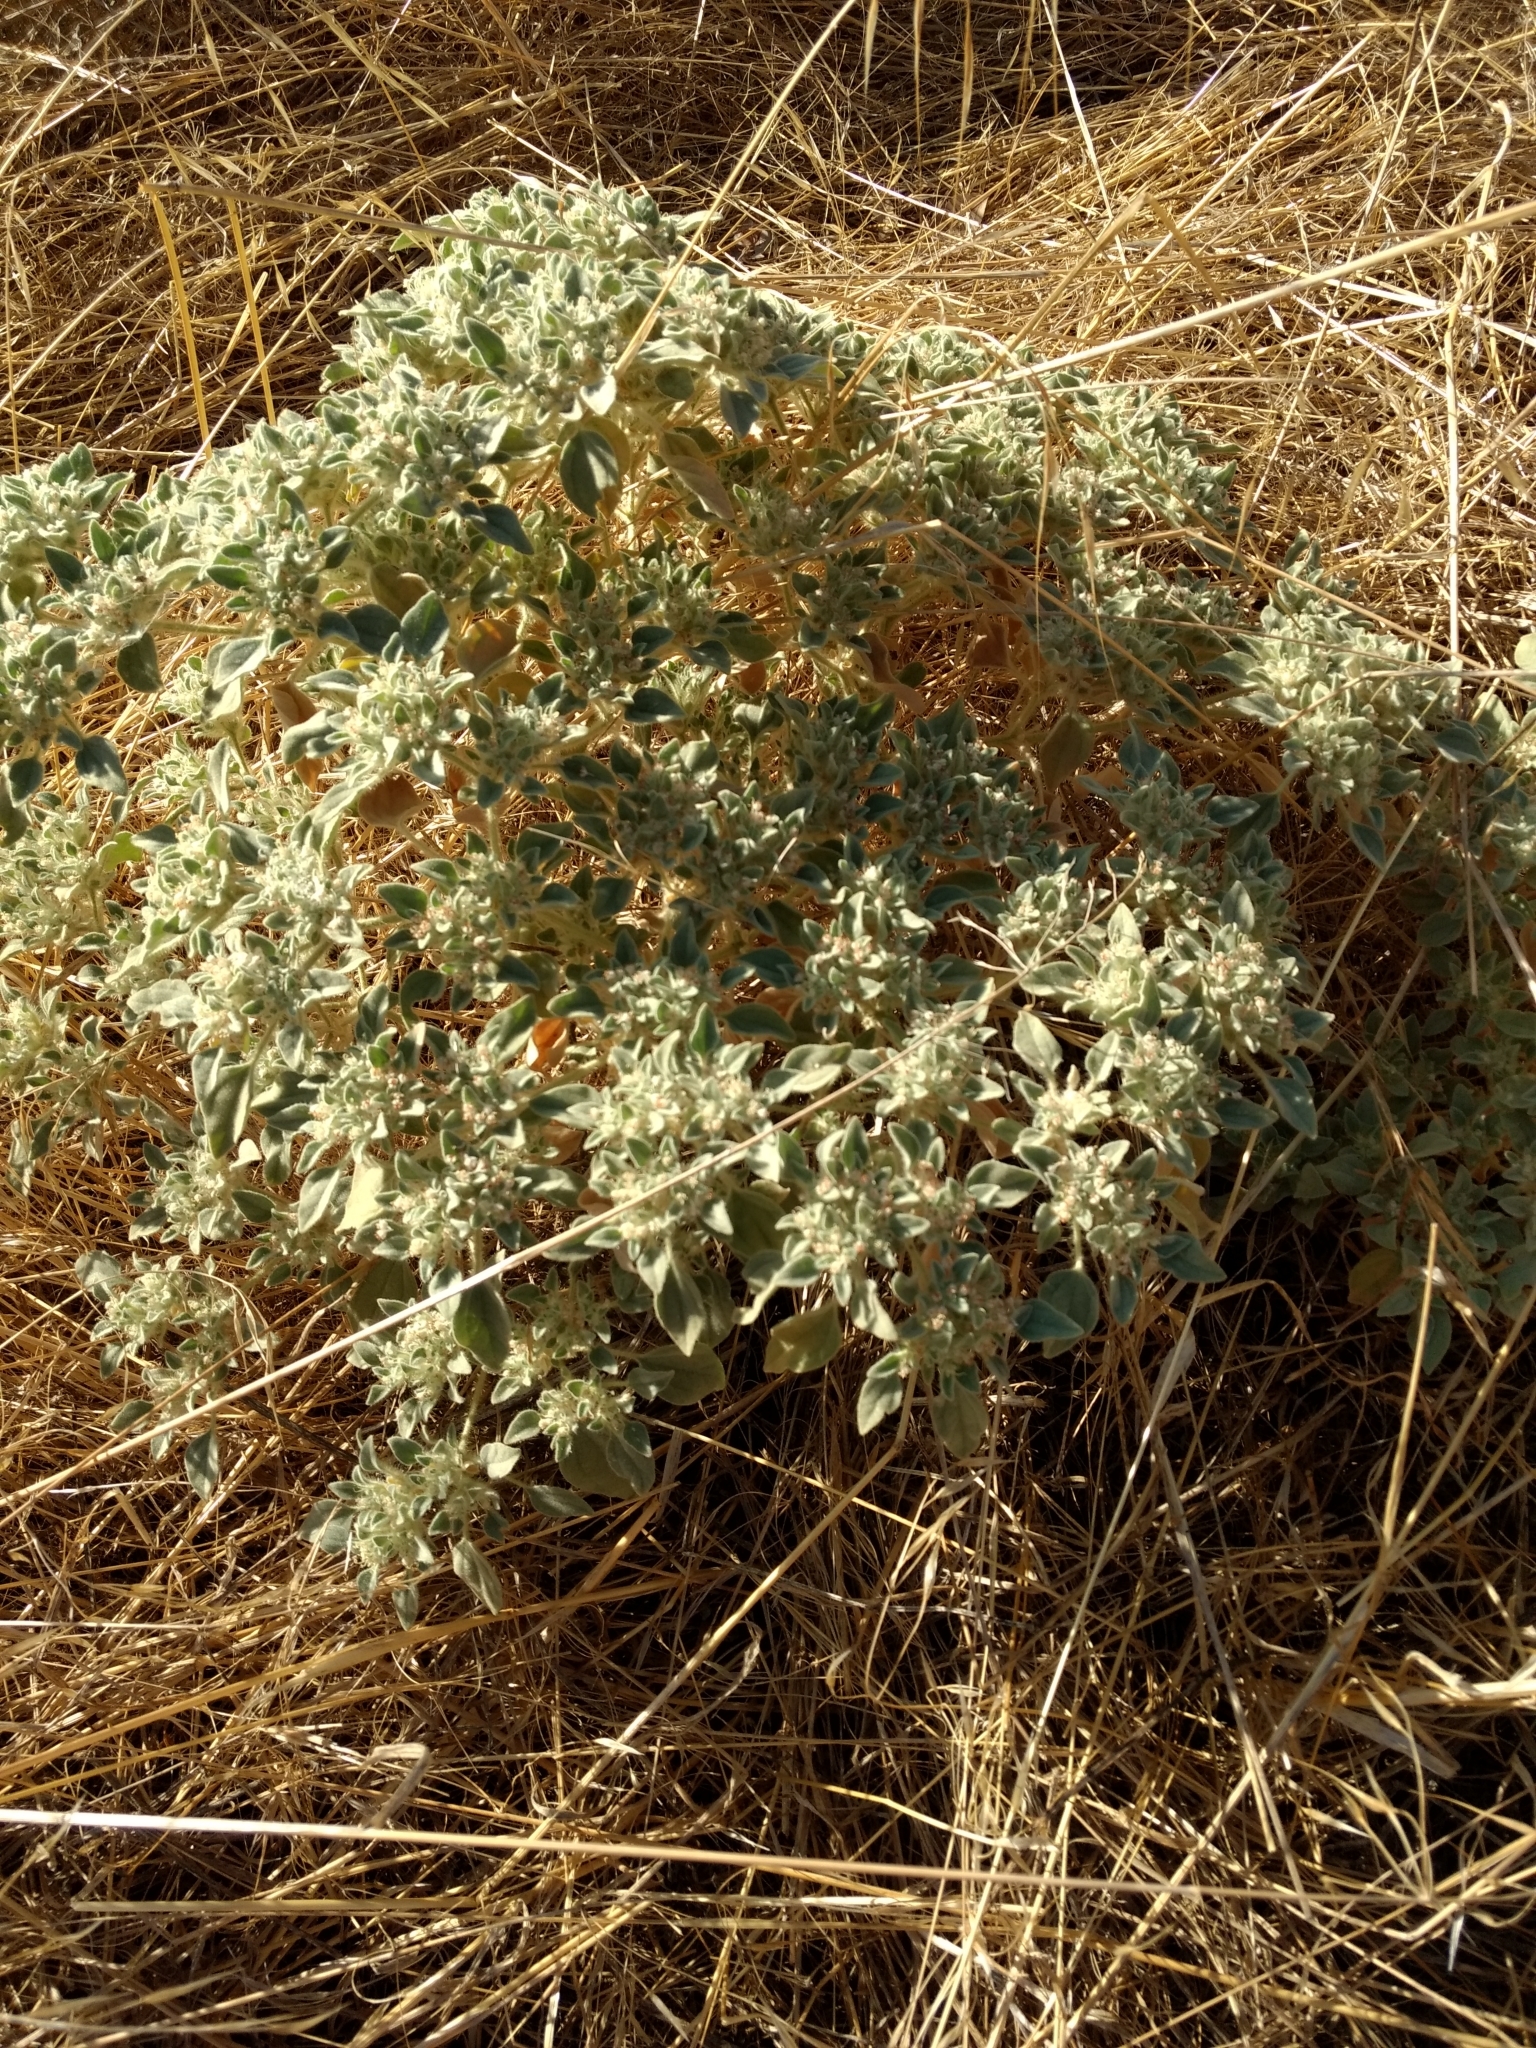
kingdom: Plantae
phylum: Tracheophyta
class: Magnoliopsida
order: Malpighiales
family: Euphorbiaceae
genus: Croton
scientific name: Croton setiger
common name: Dove weed
